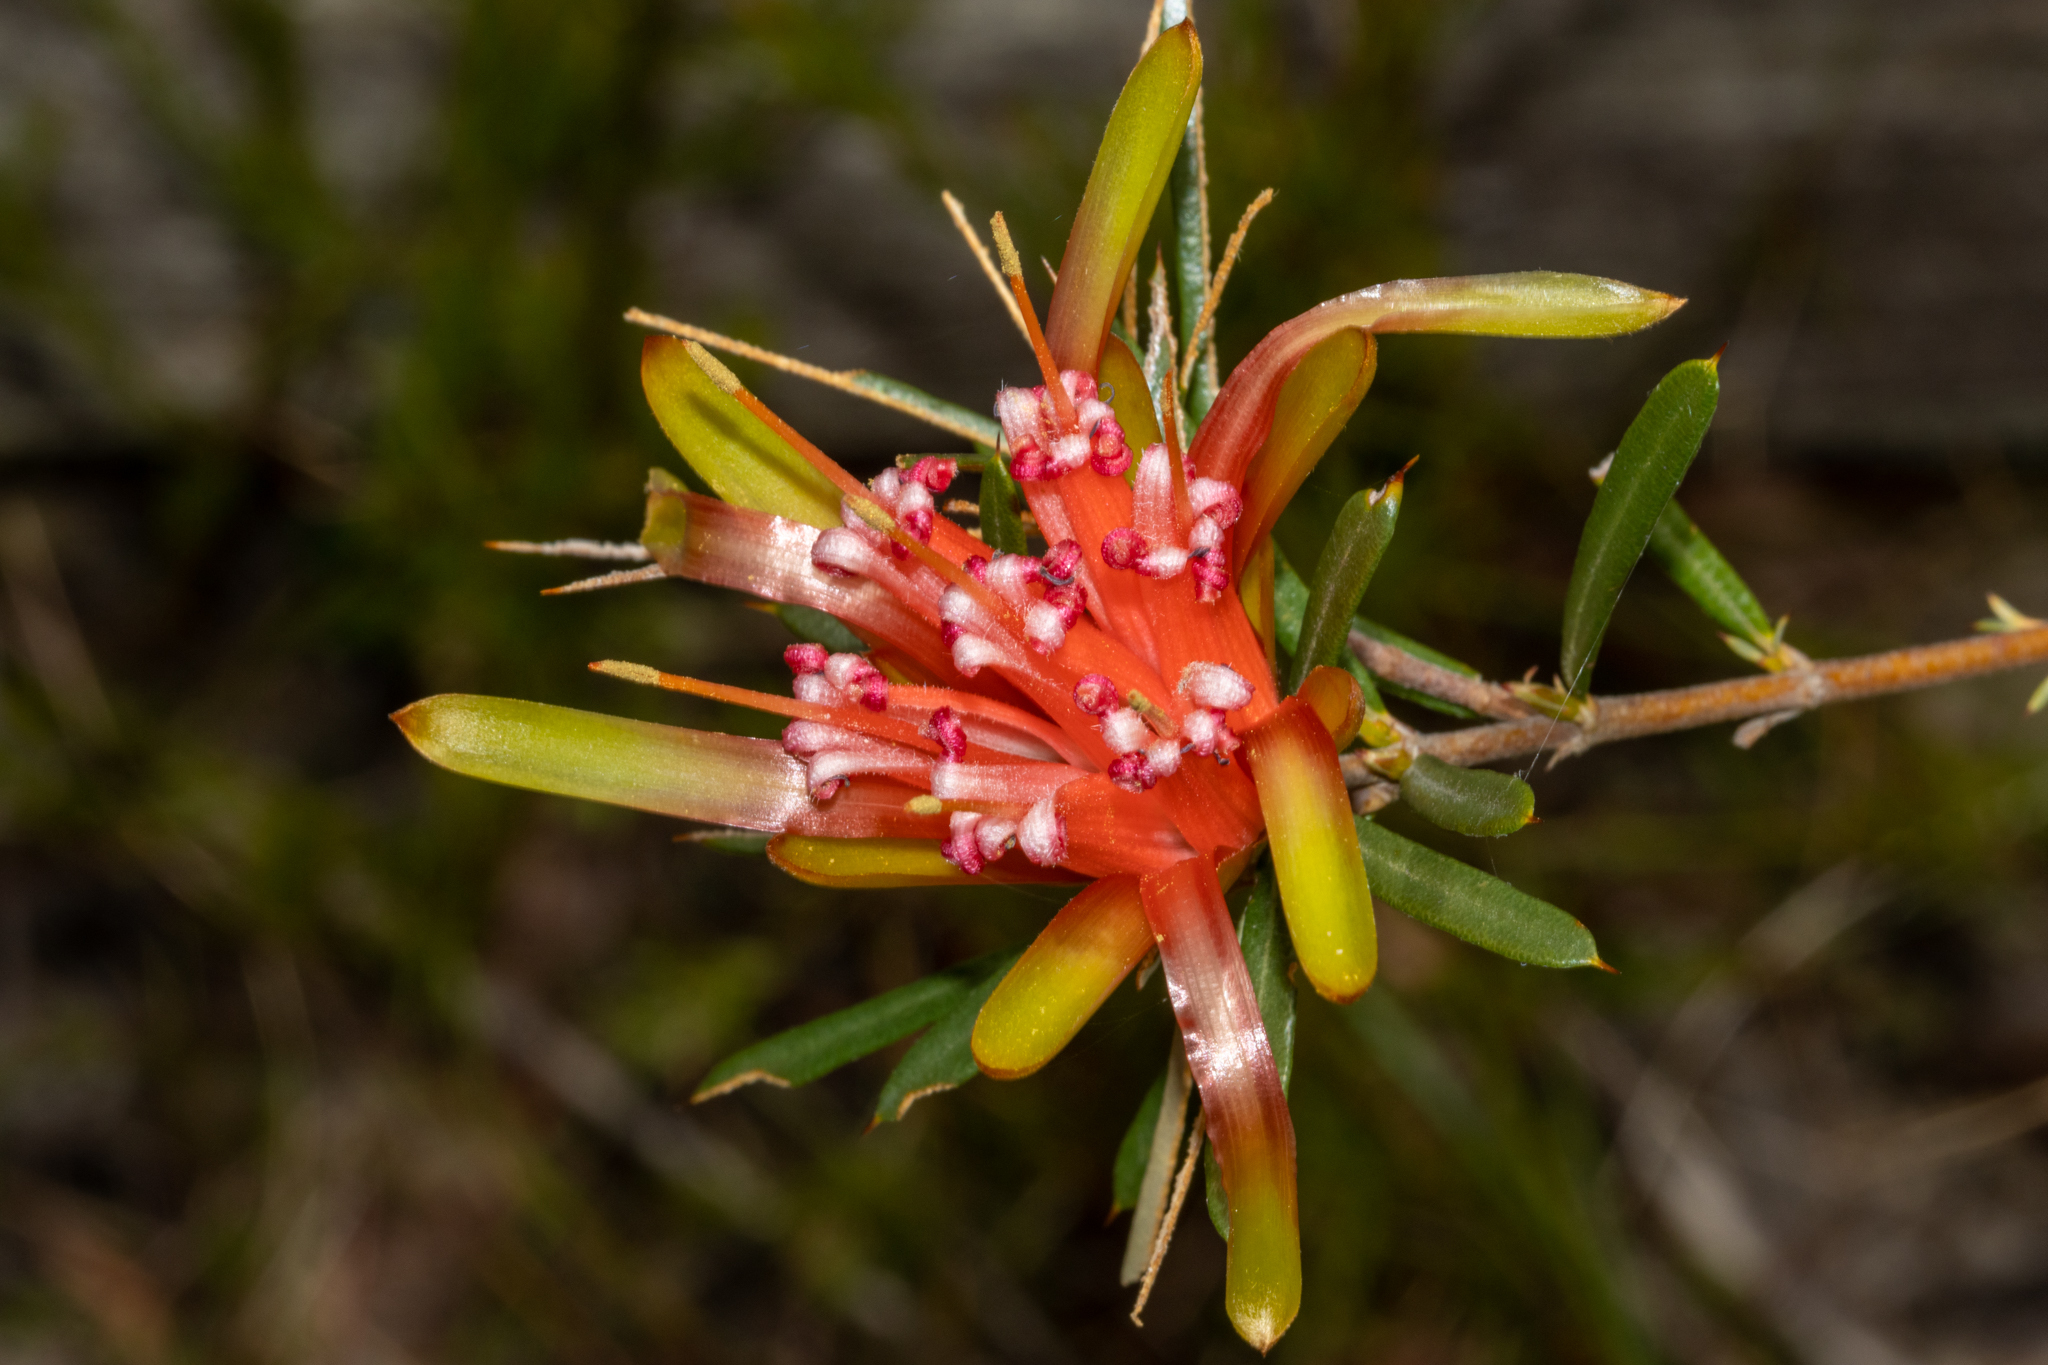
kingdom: Plantae
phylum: Tracheophyta
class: Magnoliopsida
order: Proteales
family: Proteaceae
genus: Lambertia
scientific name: Lambertia formosa
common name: Mountain-devil
